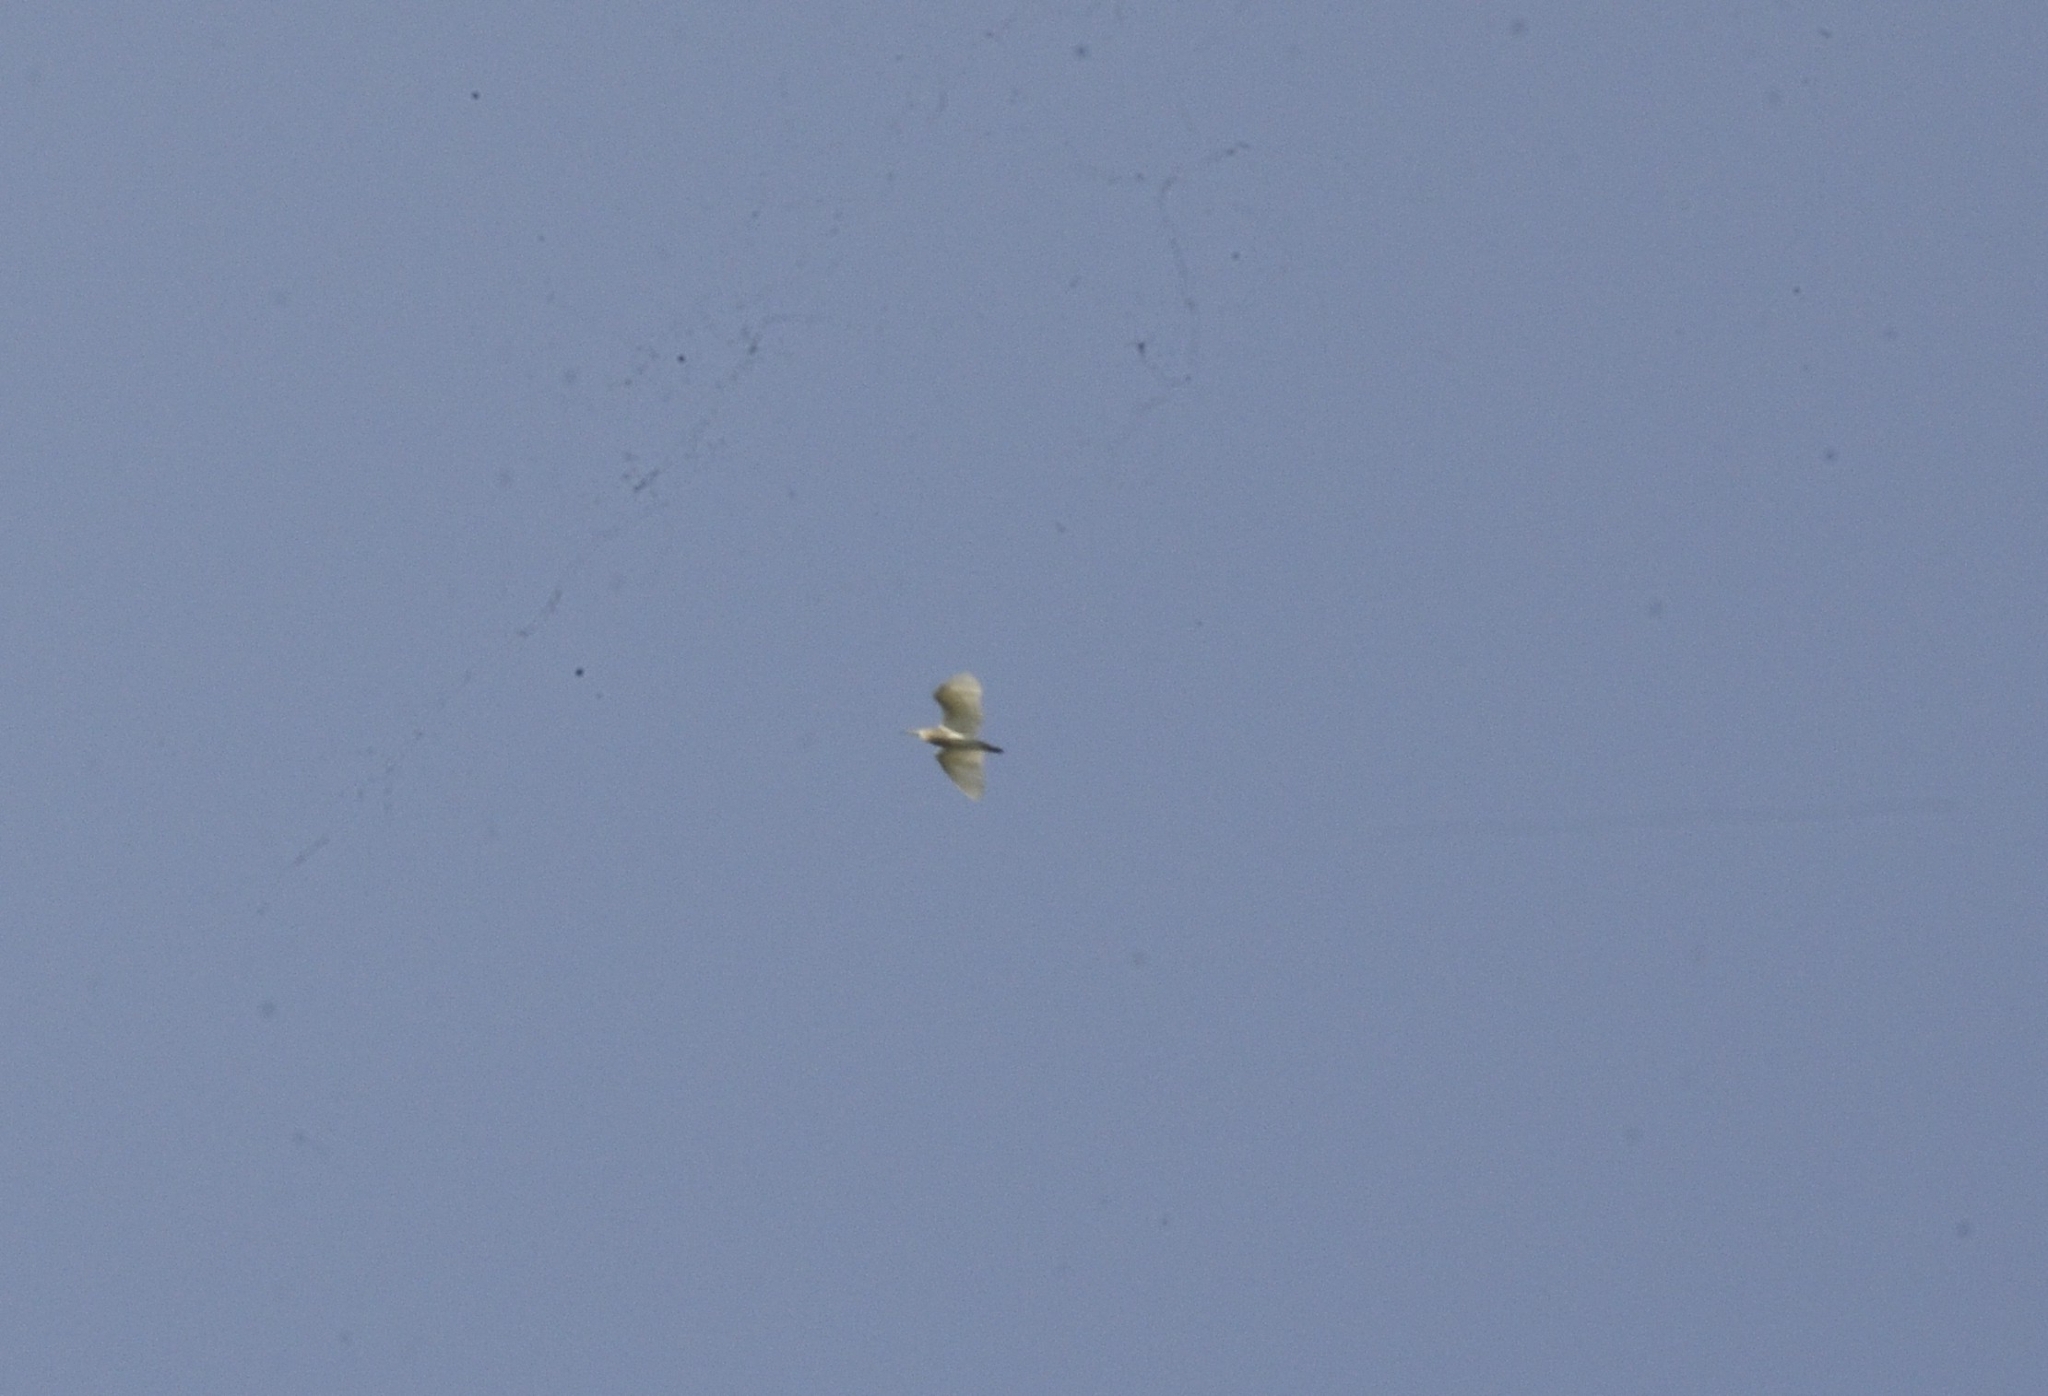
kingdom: Animalia
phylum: Chordata
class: Aves
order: Pelecaniformes
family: Ardeidae
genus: Ardeola
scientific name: Ardeola grayii
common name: Indian pond heron
